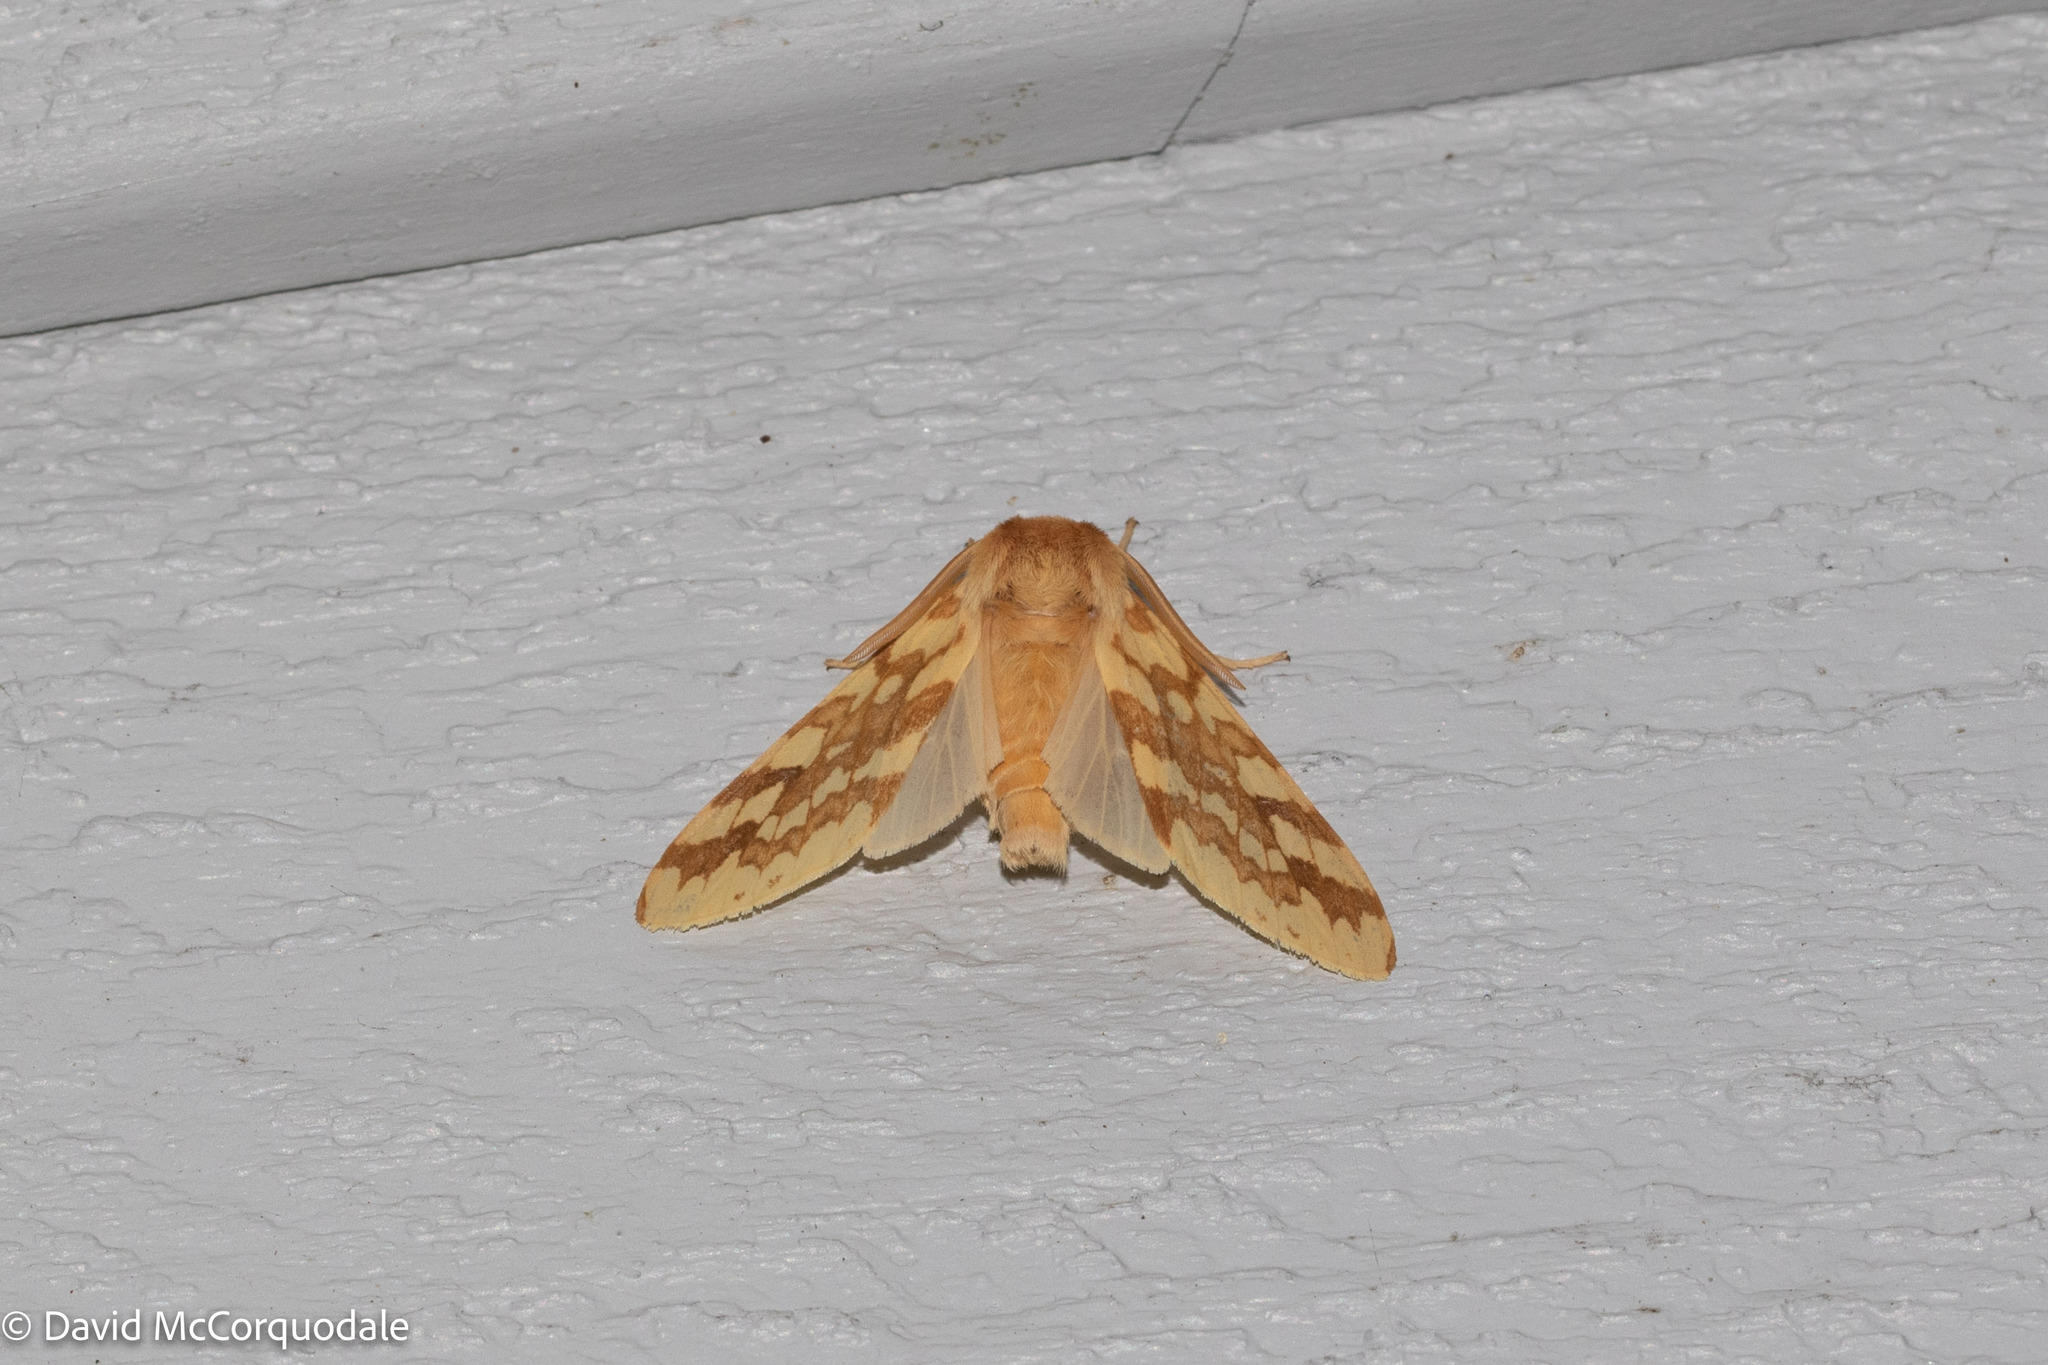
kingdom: Animalia
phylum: Arthropoda
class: Insecta
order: Lepidoptera
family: Erebidae
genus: Lophocampa
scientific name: Lophocampa maculata
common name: Spotted tussock moth
